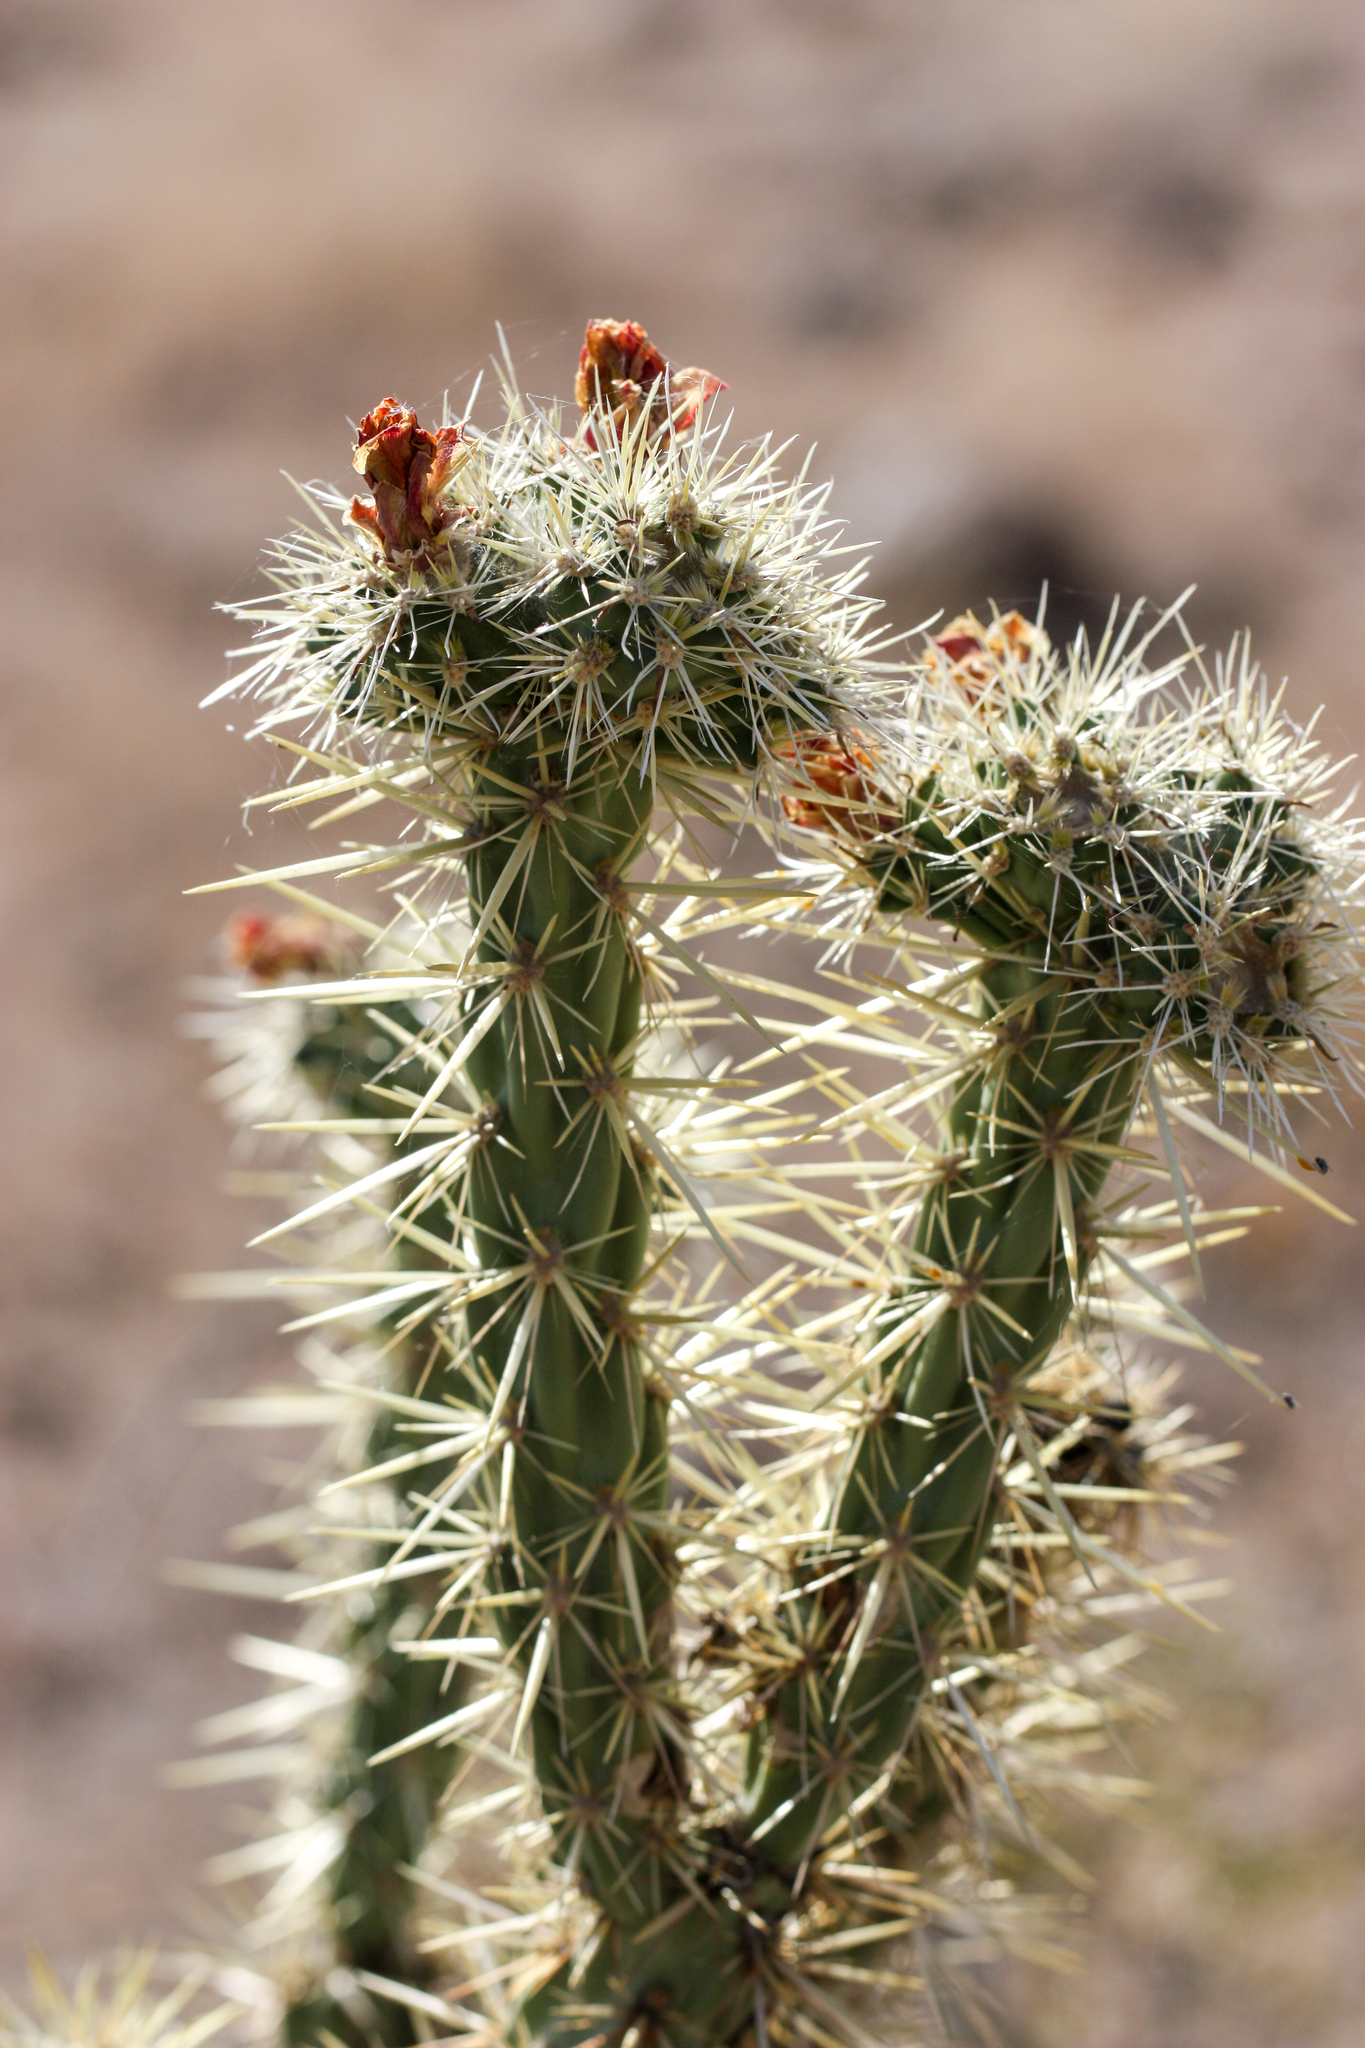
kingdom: Plantae
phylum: Tracheophyta
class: Magnoliopsida
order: Caryophyllales
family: Cactaceae
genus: Cylindropuntia
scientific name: Cylindropuntia acanthocarpa
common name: Buckhorn cholla
